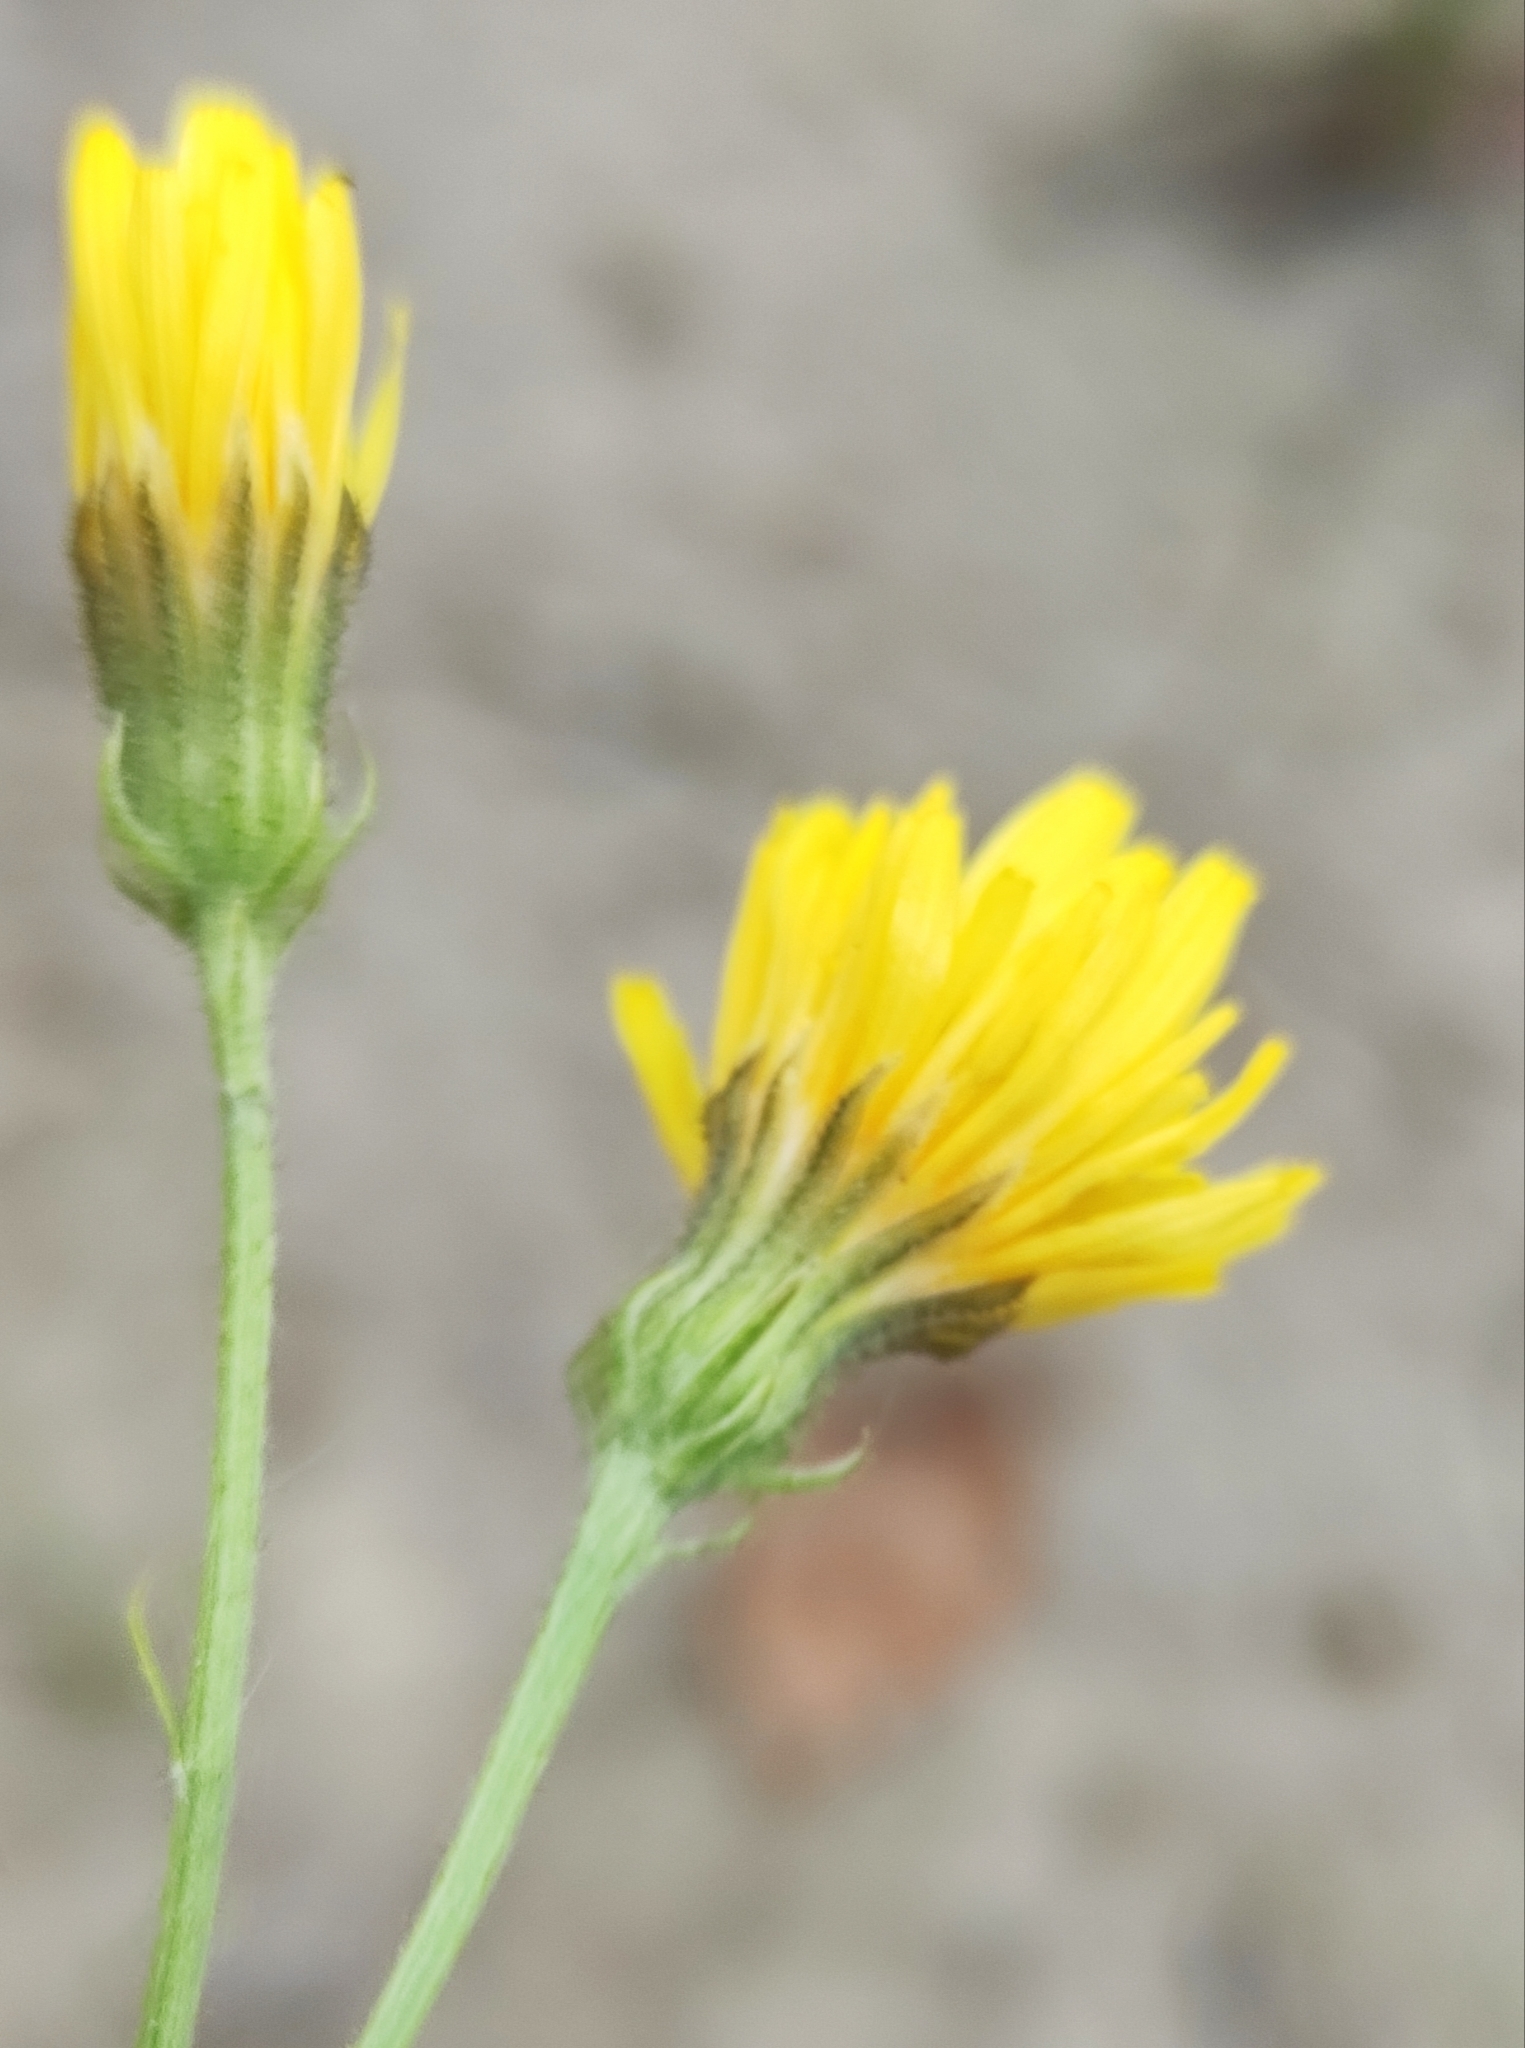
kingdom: Plantae
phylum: Tracheophyta
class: Magnoliopsida
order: Asterales
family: Asteraceae
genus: Crepis
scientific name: Crepis tectorum
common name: Narrow-leaved hawk's-beard
